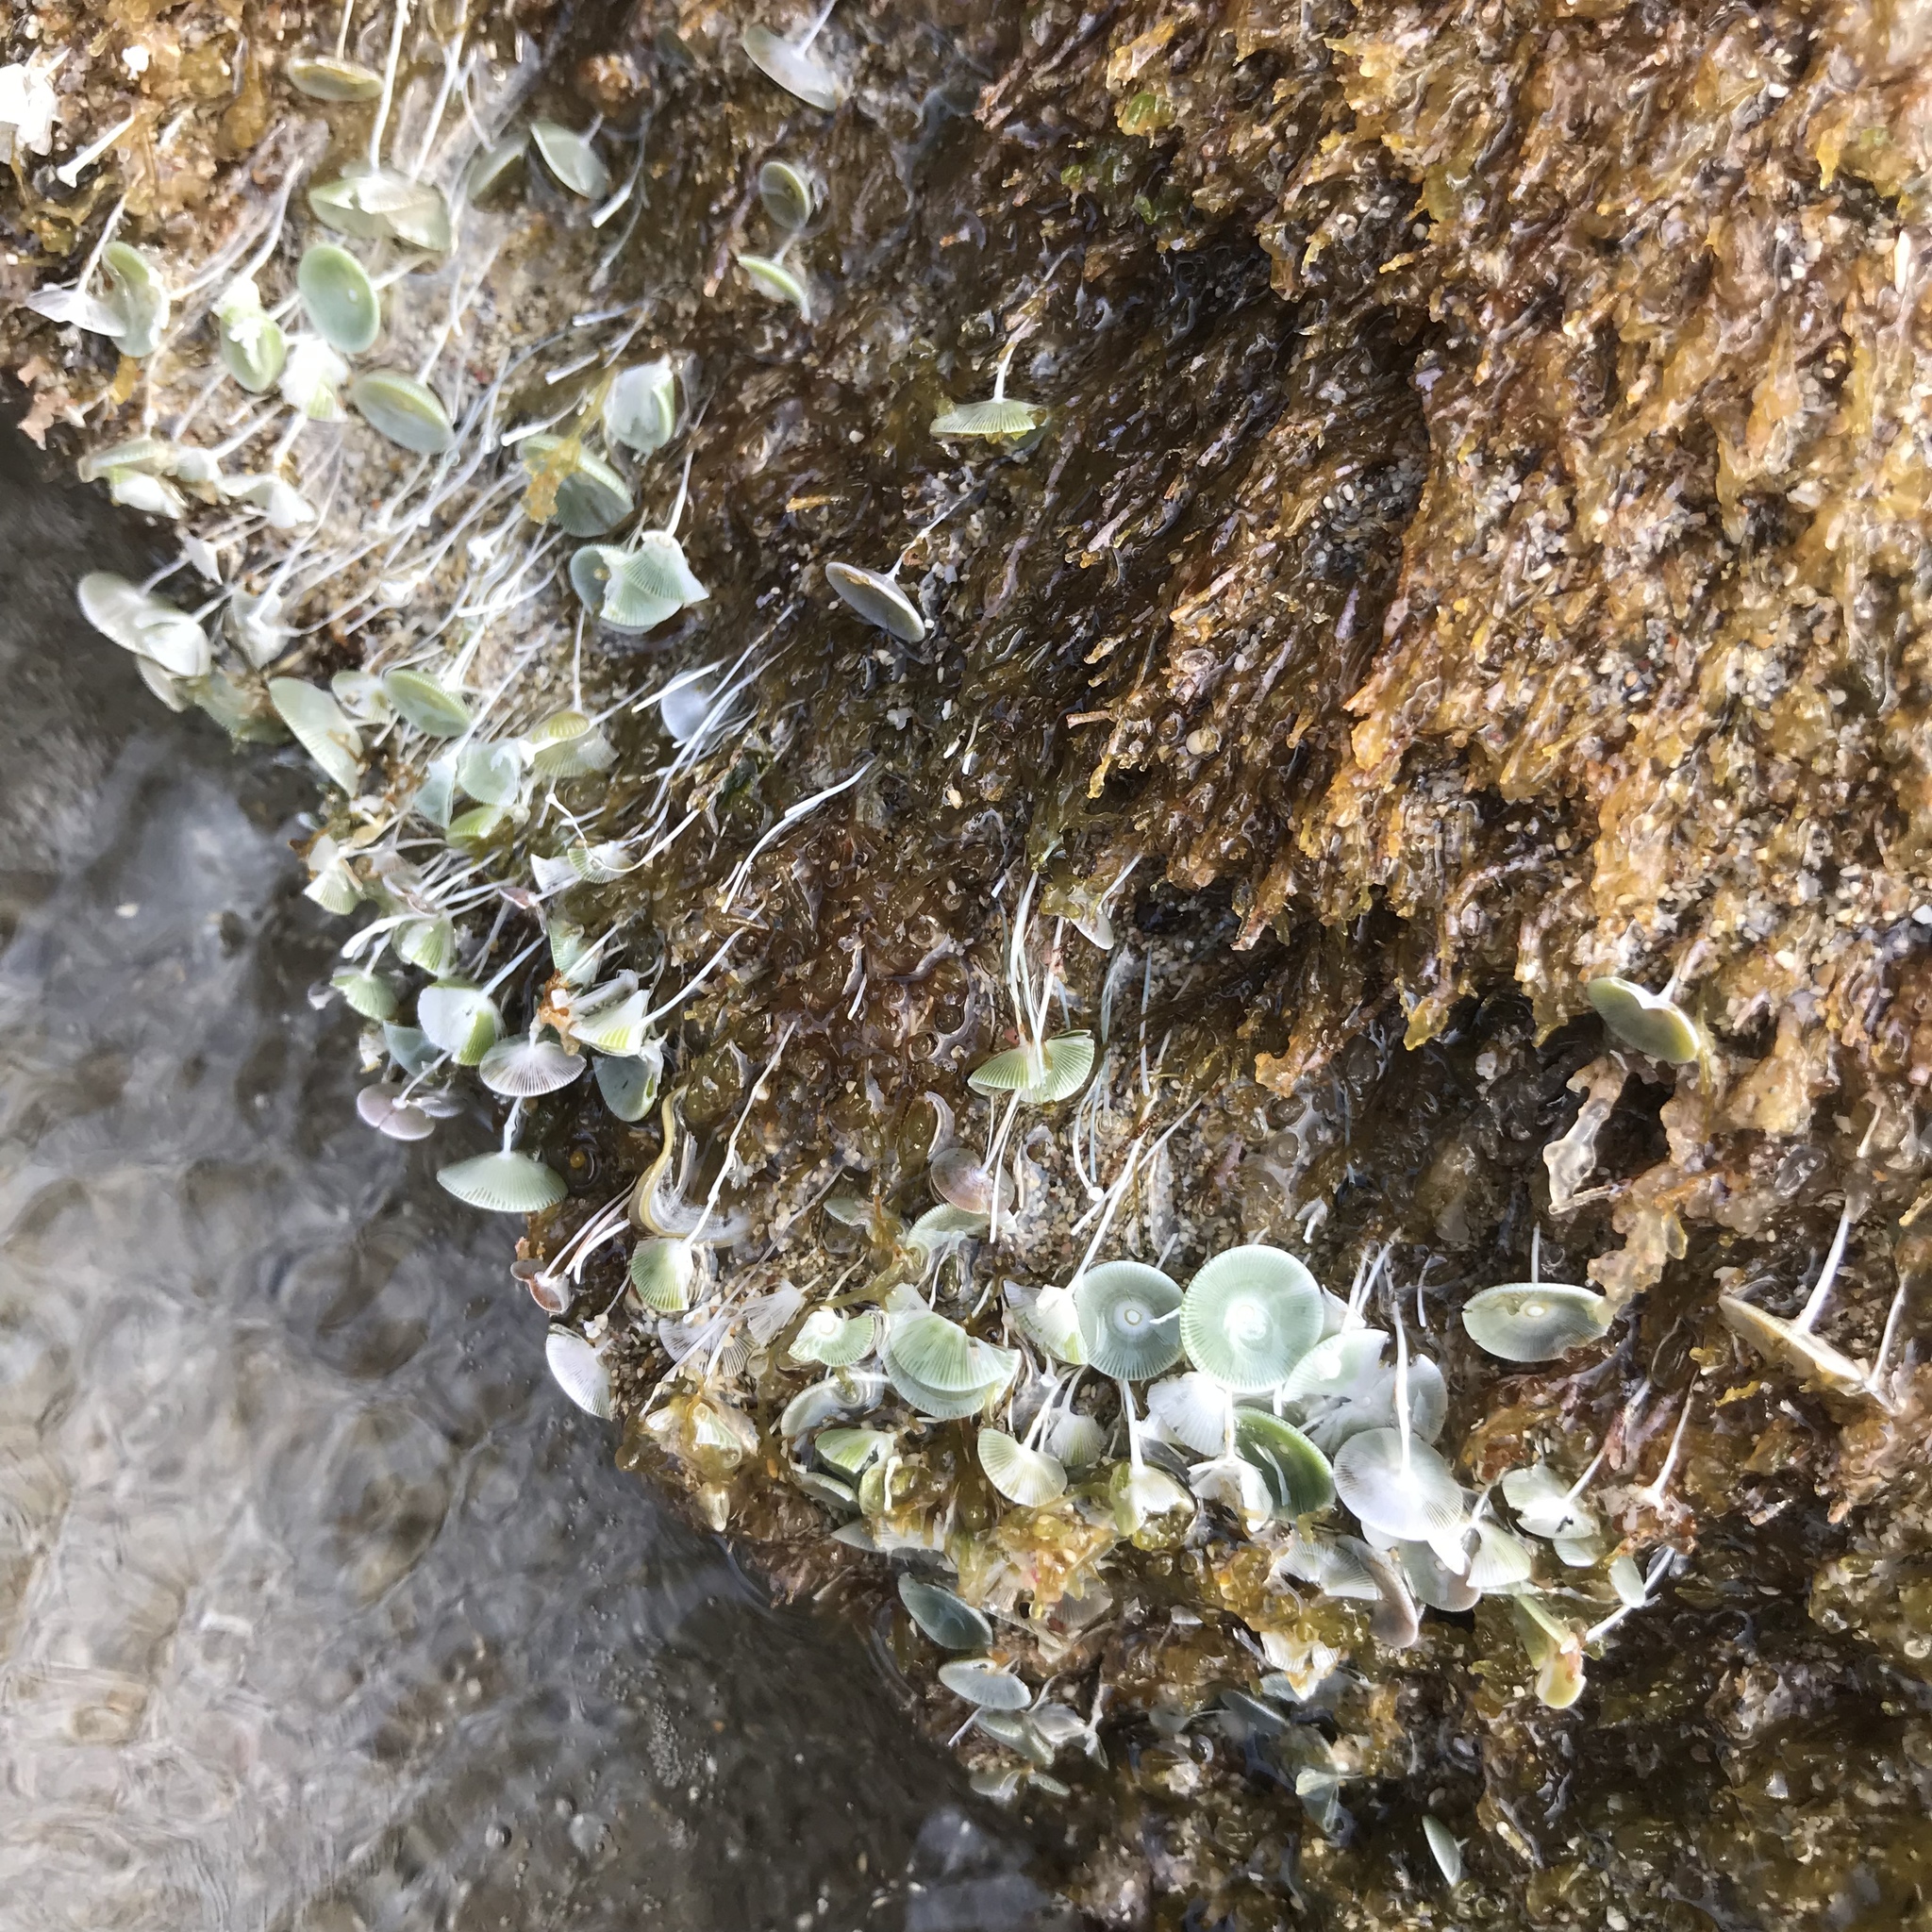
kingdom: Plantae
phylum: Chlorophyta
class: Ulvophyceae
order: Dasycladales
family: Polyphysaceae
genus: Acetabularia
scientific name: Acetabularia acetabulum
